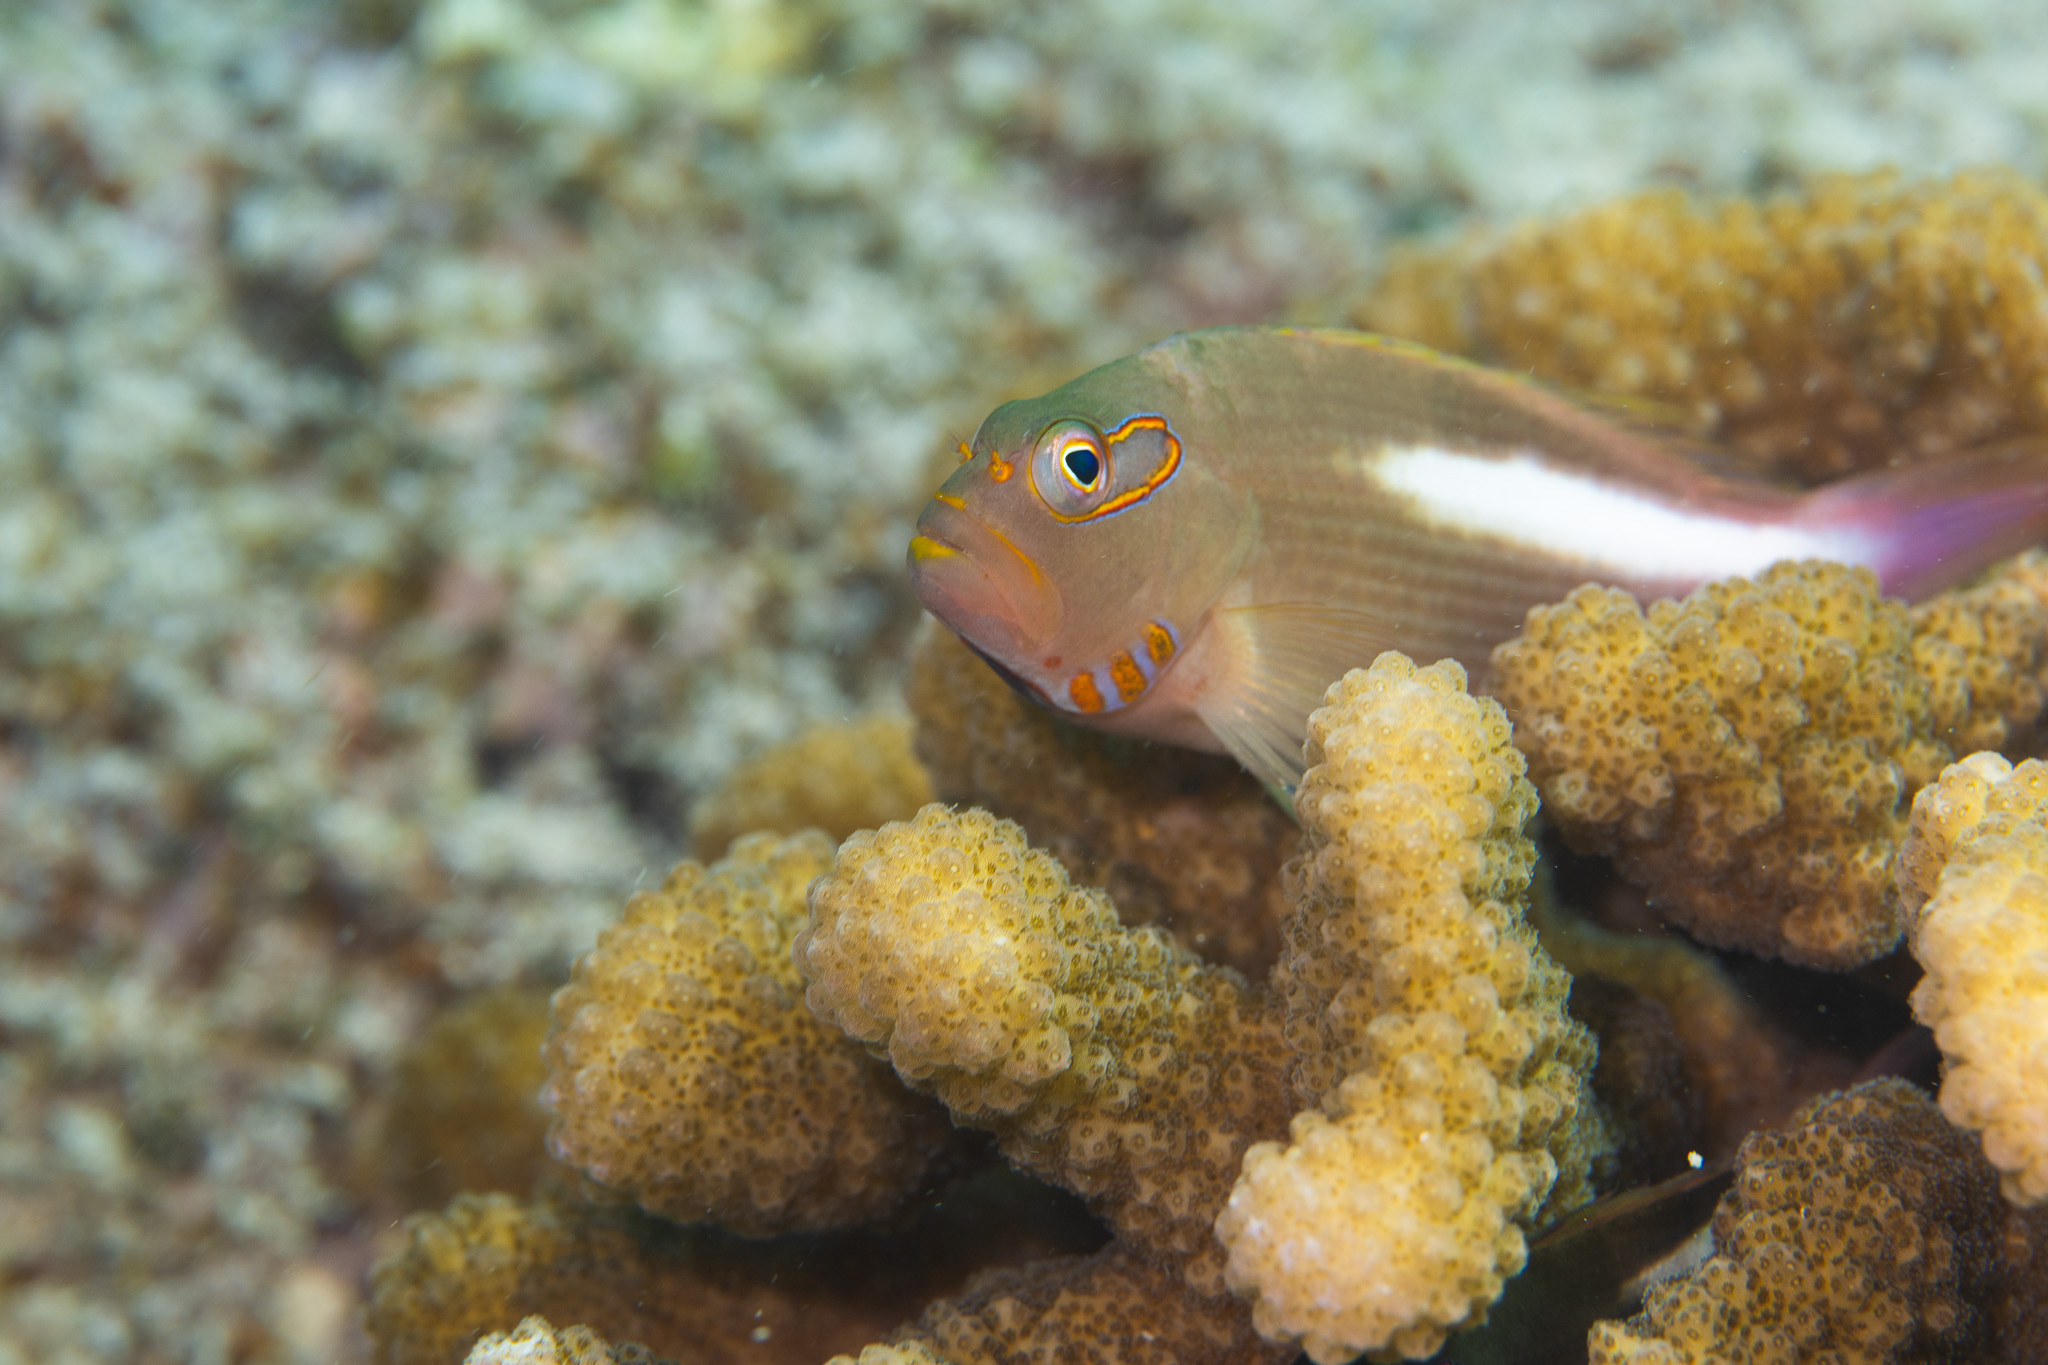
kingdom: Animalia
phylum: Chordata
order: Perciformes
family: Cirrhitidae
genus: Paracirrhites
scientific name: Paracirrhites arcatus
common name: Arc-eye hawkfish
